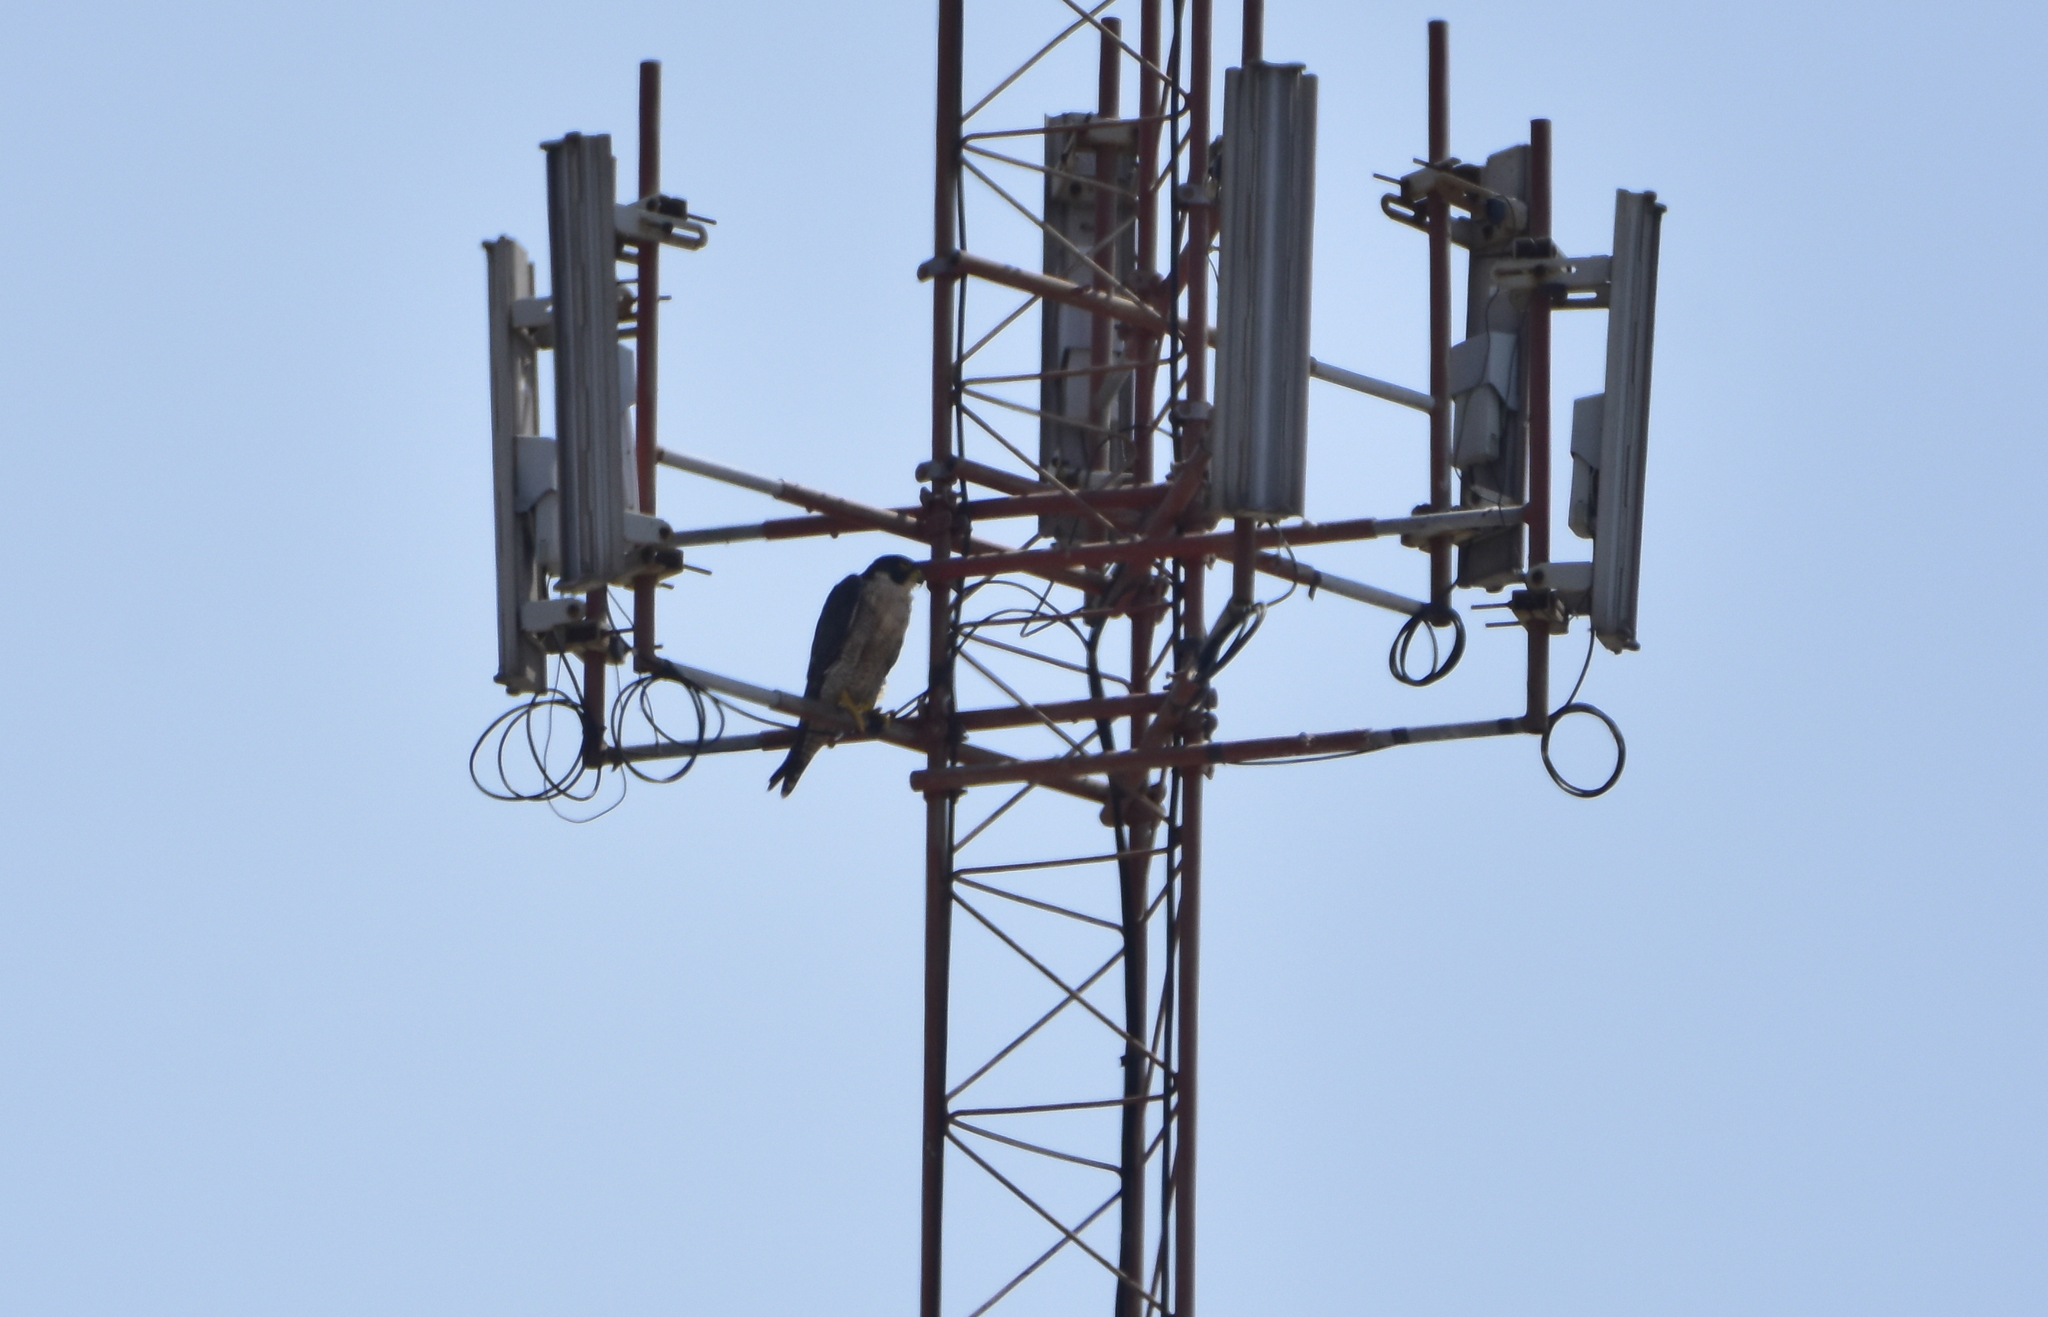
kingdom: Animalia
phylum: Chordata
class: Aves
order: Falconiformes
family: Falconidae
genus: Falco
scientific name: Falco peregrinus
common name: Peregrine falcon
